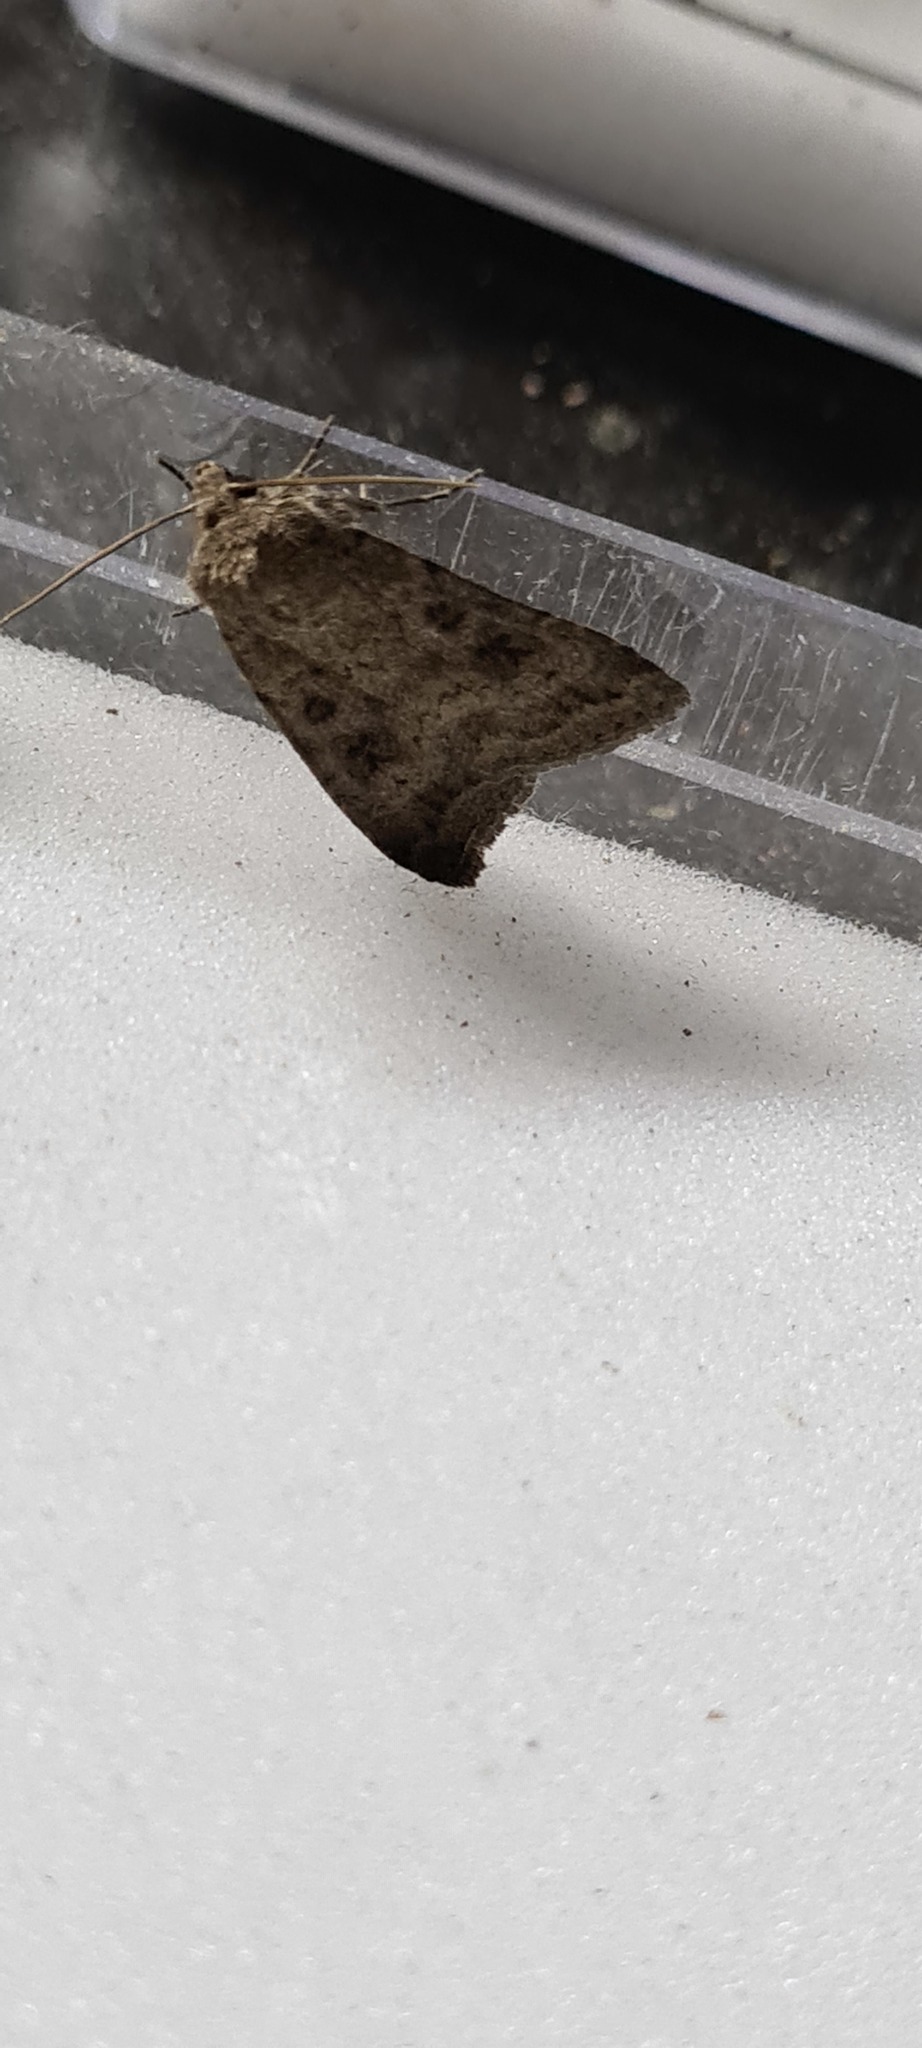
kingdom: Animalia
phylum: Arthropoda
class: Insecta
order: Lepidoptera
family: Noctuidae
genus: Caradrina
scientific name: Caradrina morpheus
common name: Mottled rustic
